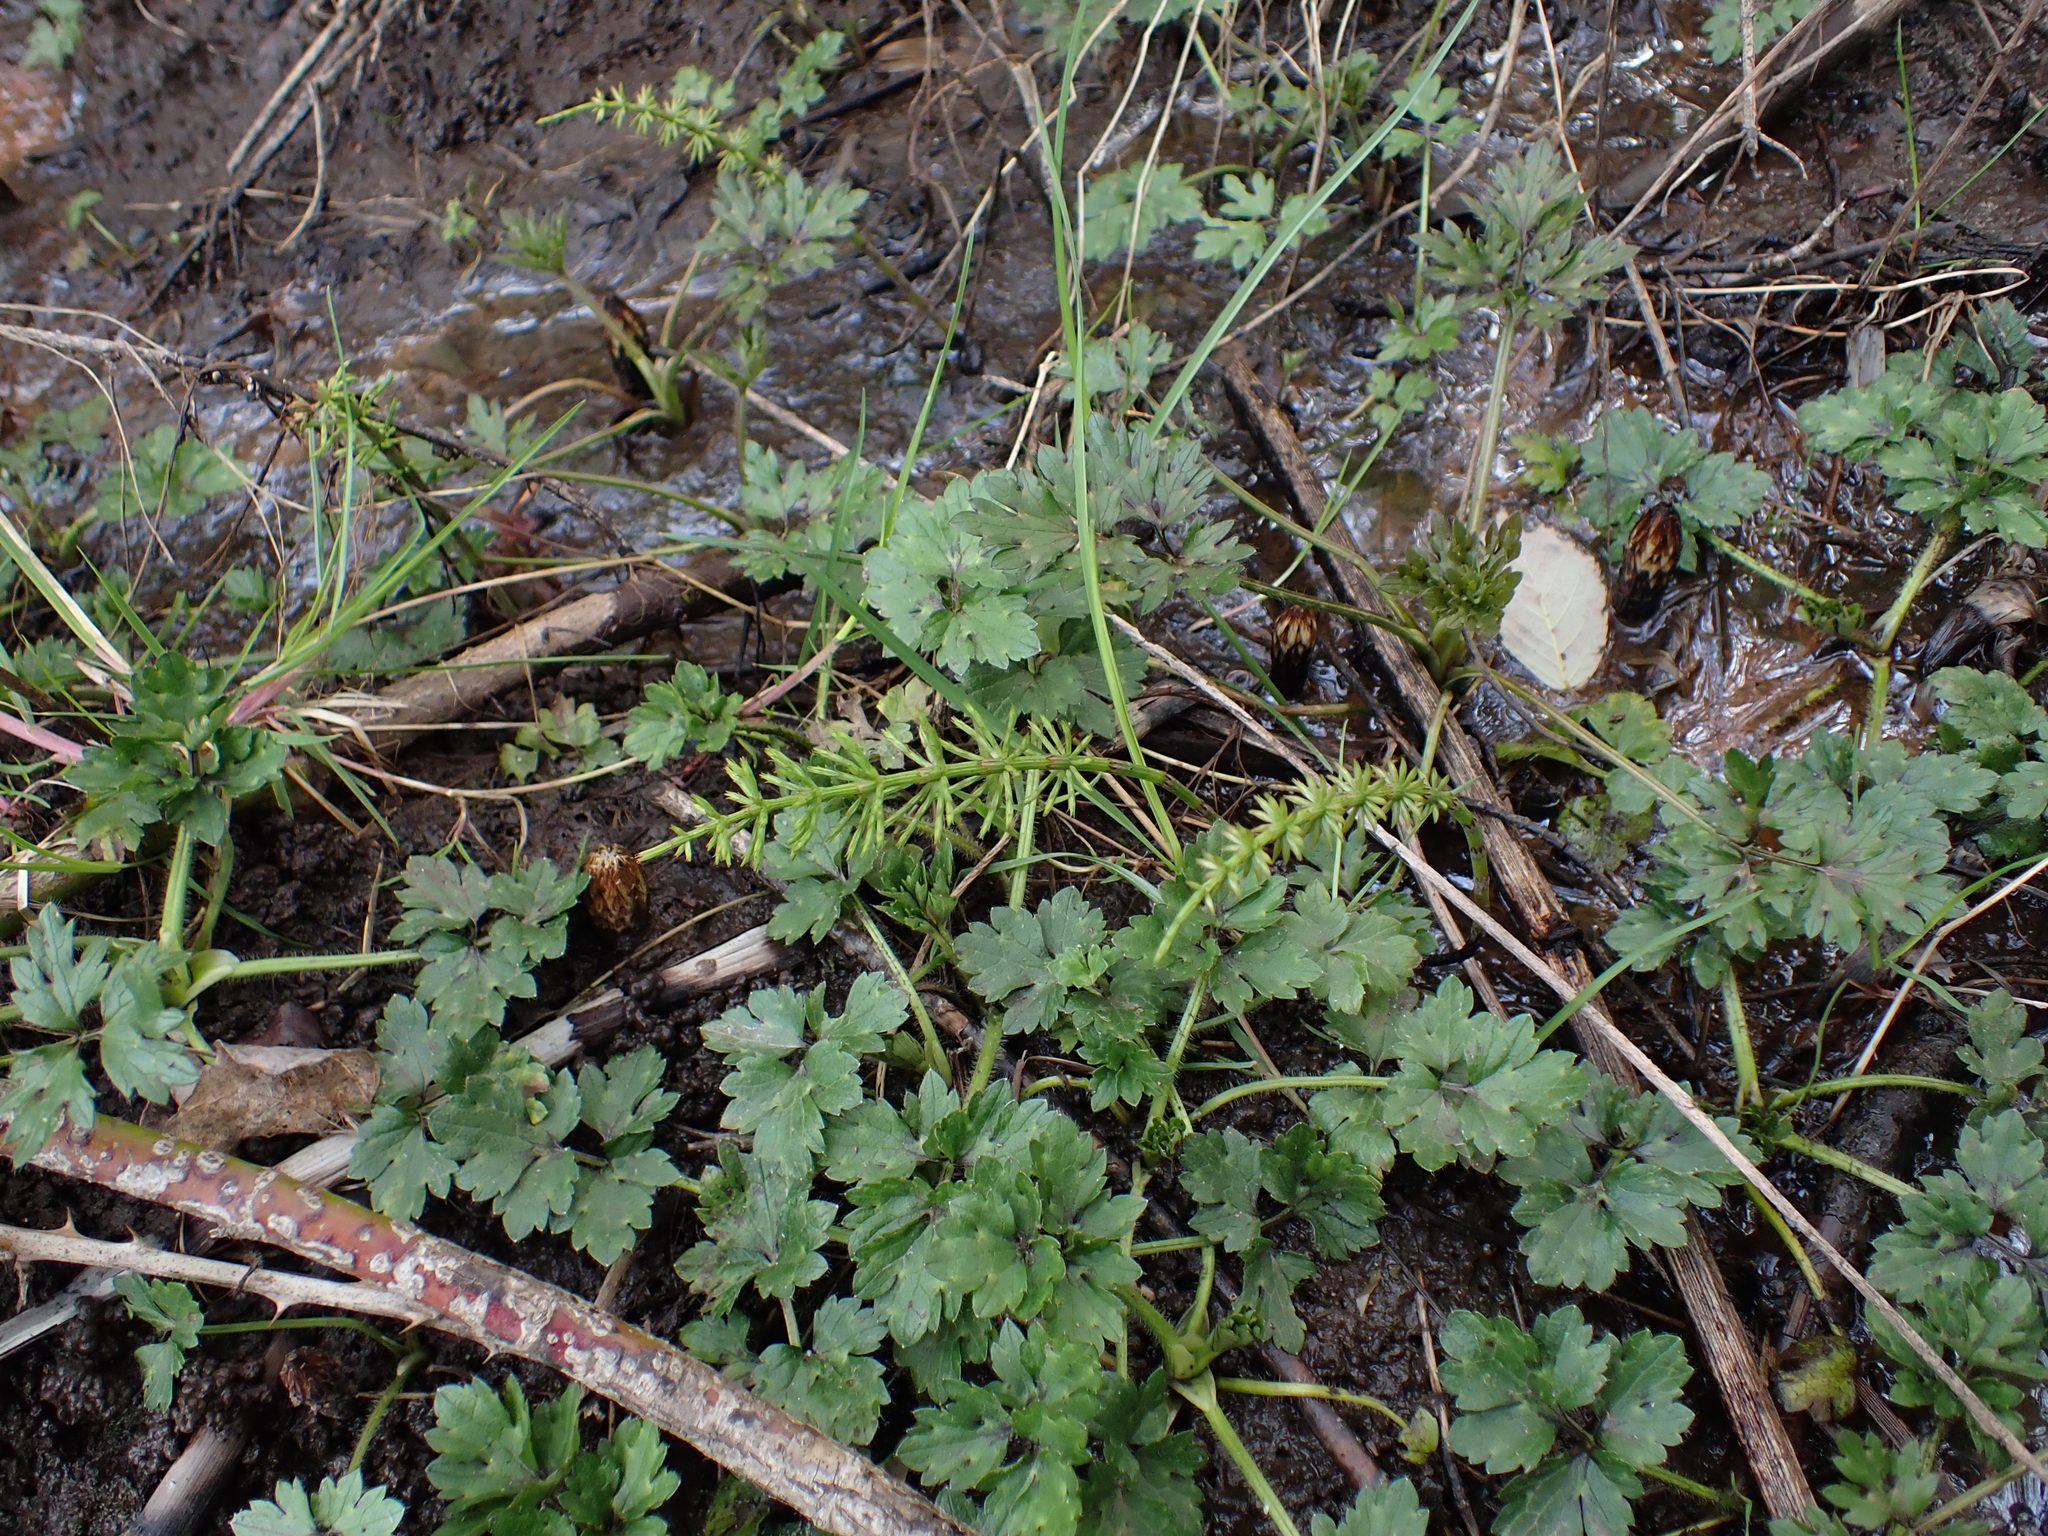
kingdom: Plantae
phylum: Tracheophyta
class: Polypodiopsida
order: Equisetales
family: Equisetaceae
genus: Equisetum
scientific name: Equisetum arvense
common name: Field horsetail
